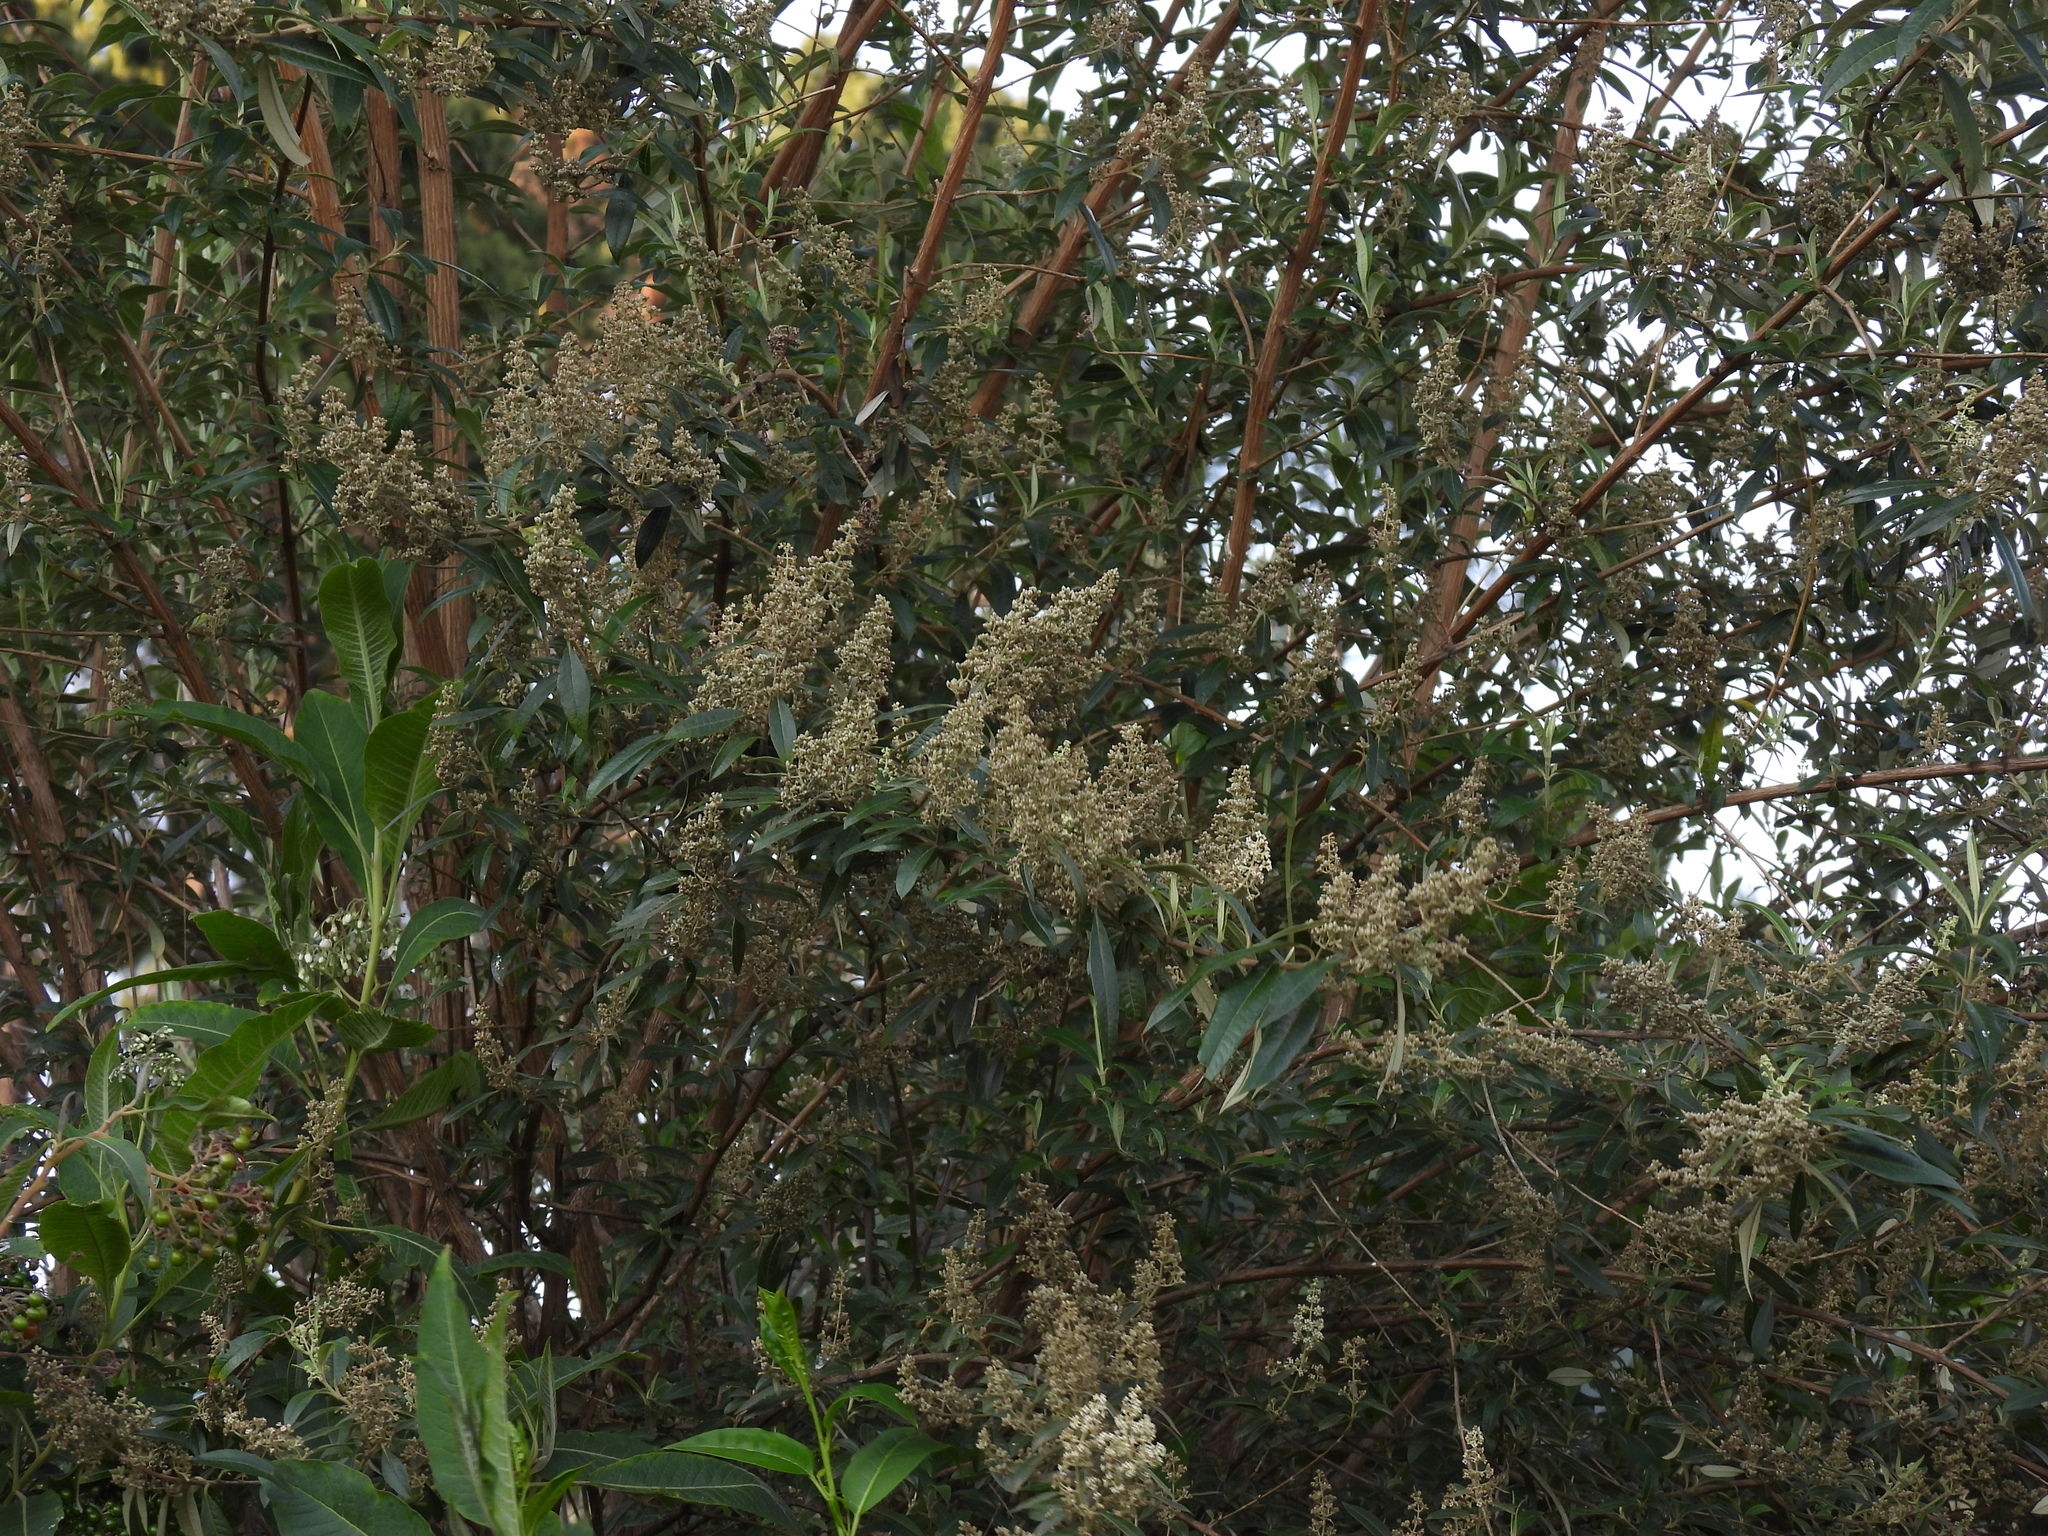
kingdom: Plantae
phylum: Tracheophyta
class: Magnoliopsida
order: Lamiales
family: Scrophulariaceae
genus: Buddleja
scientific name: Buddleja cordata
